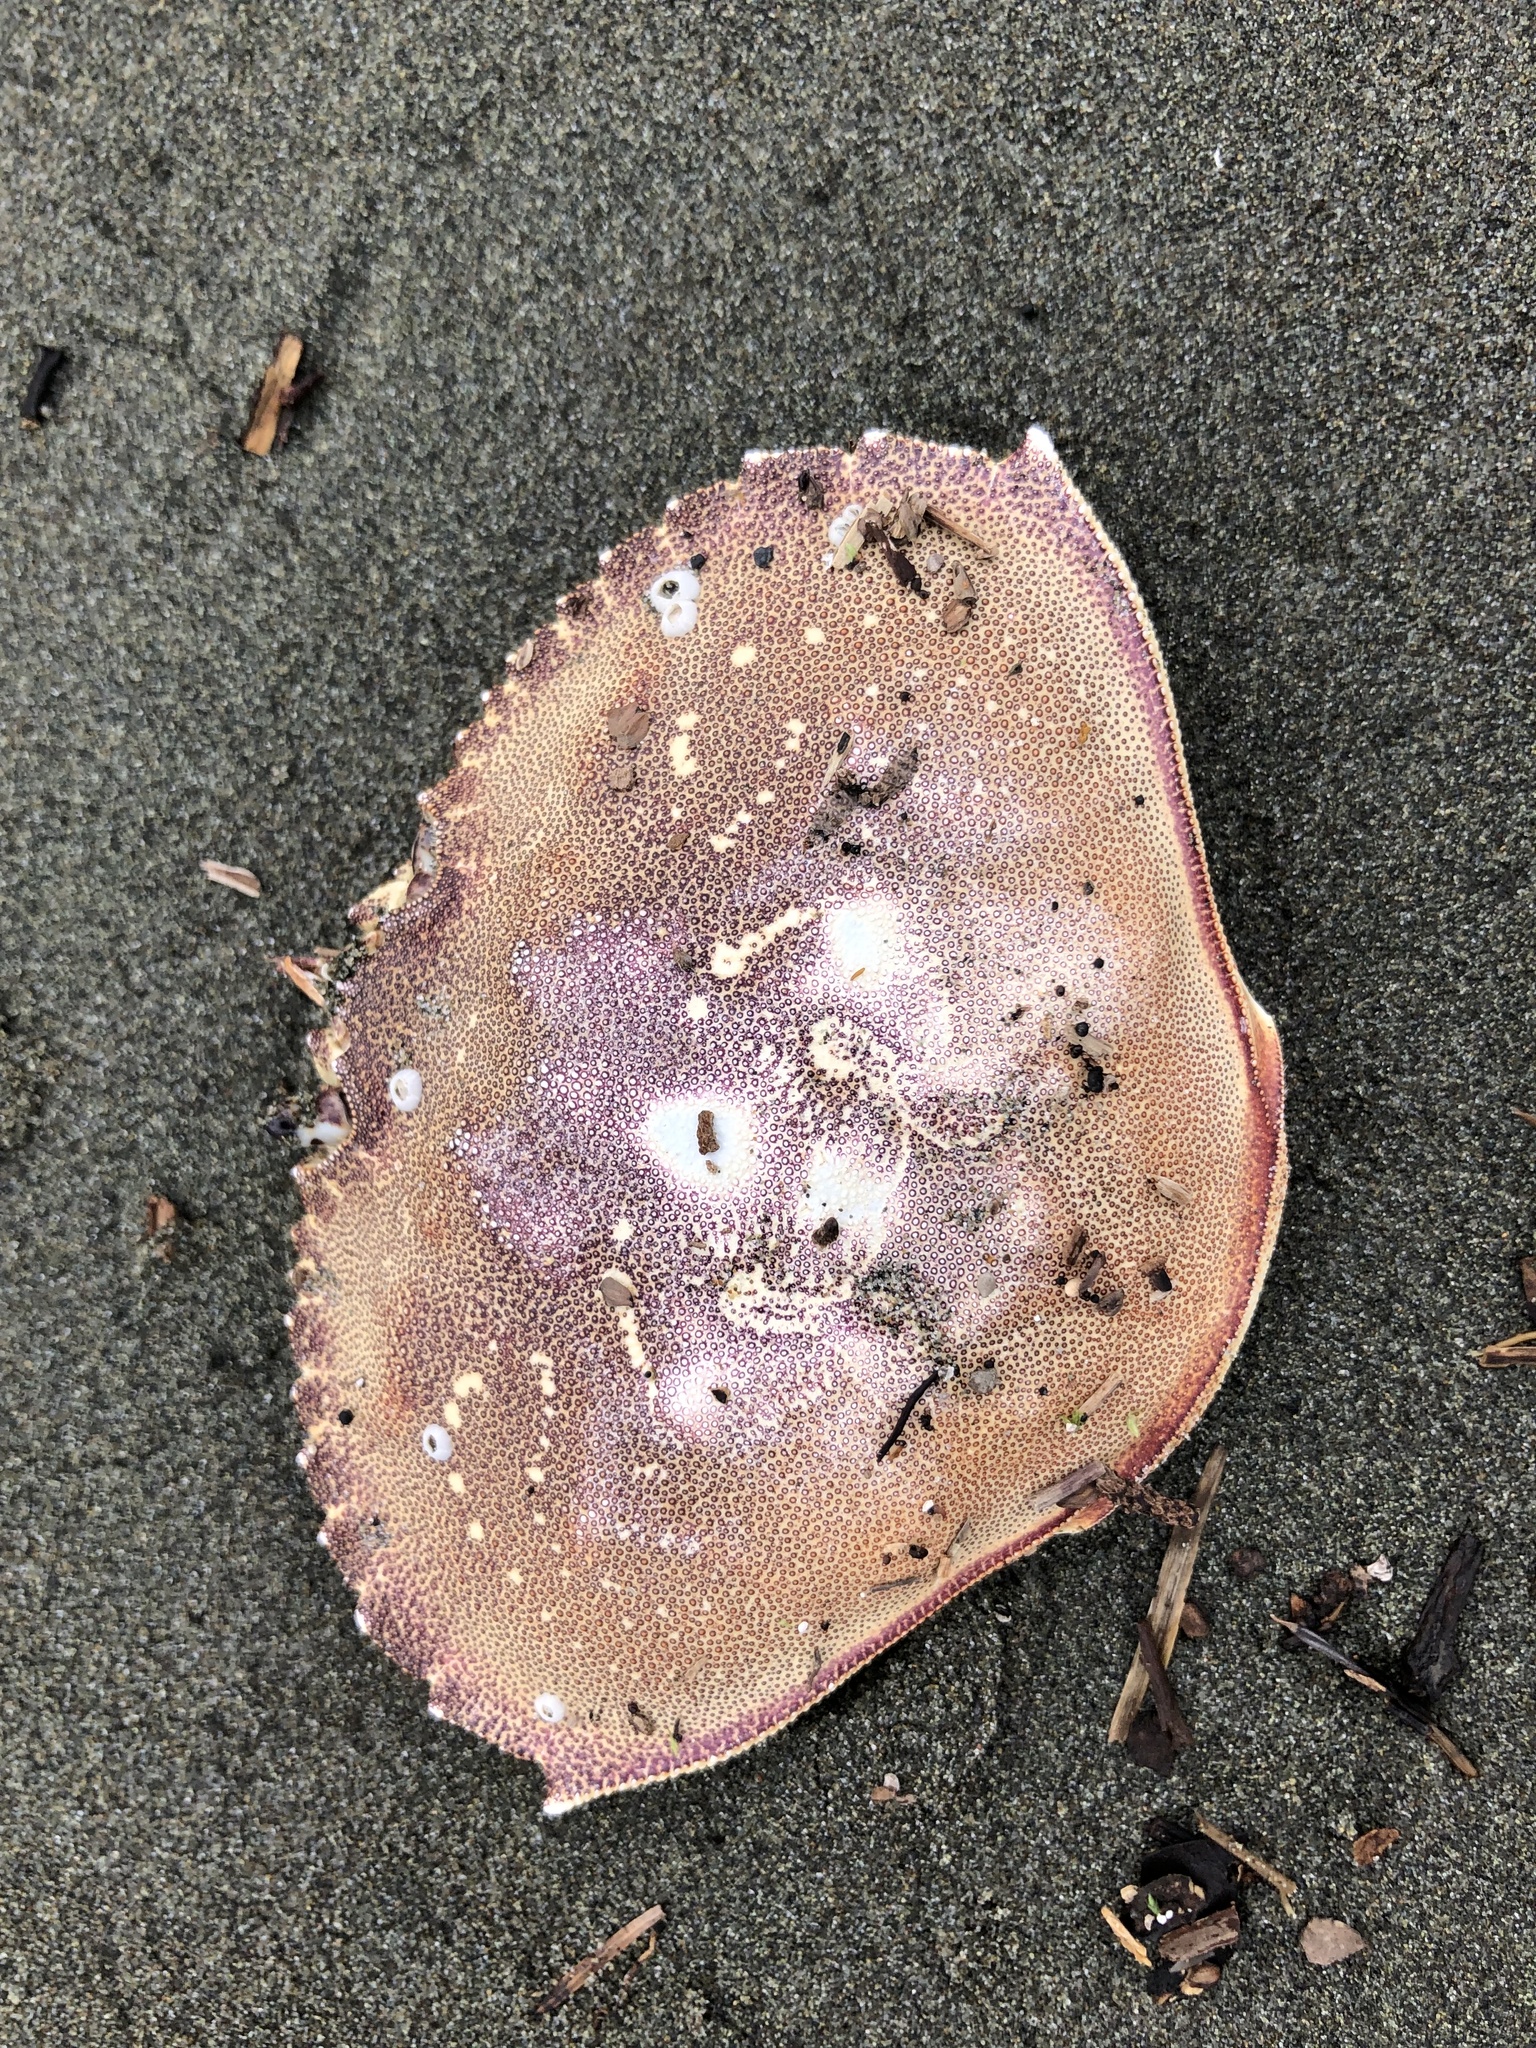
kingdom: Animalia
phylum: Arthropoda
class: Malacostraca
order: Decapoda
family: Cancridae
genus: Metacarcinus
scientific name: Metacarcinus magister
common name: Californian crab
